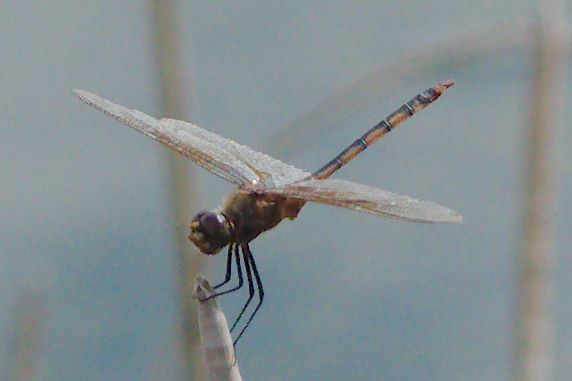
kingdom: Animalia
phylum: Arthropoda
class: Insecta
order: Odonata
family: Libellulidae
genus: Brachymesia
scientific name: Brachymesia herbida
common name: Tawny pennant
